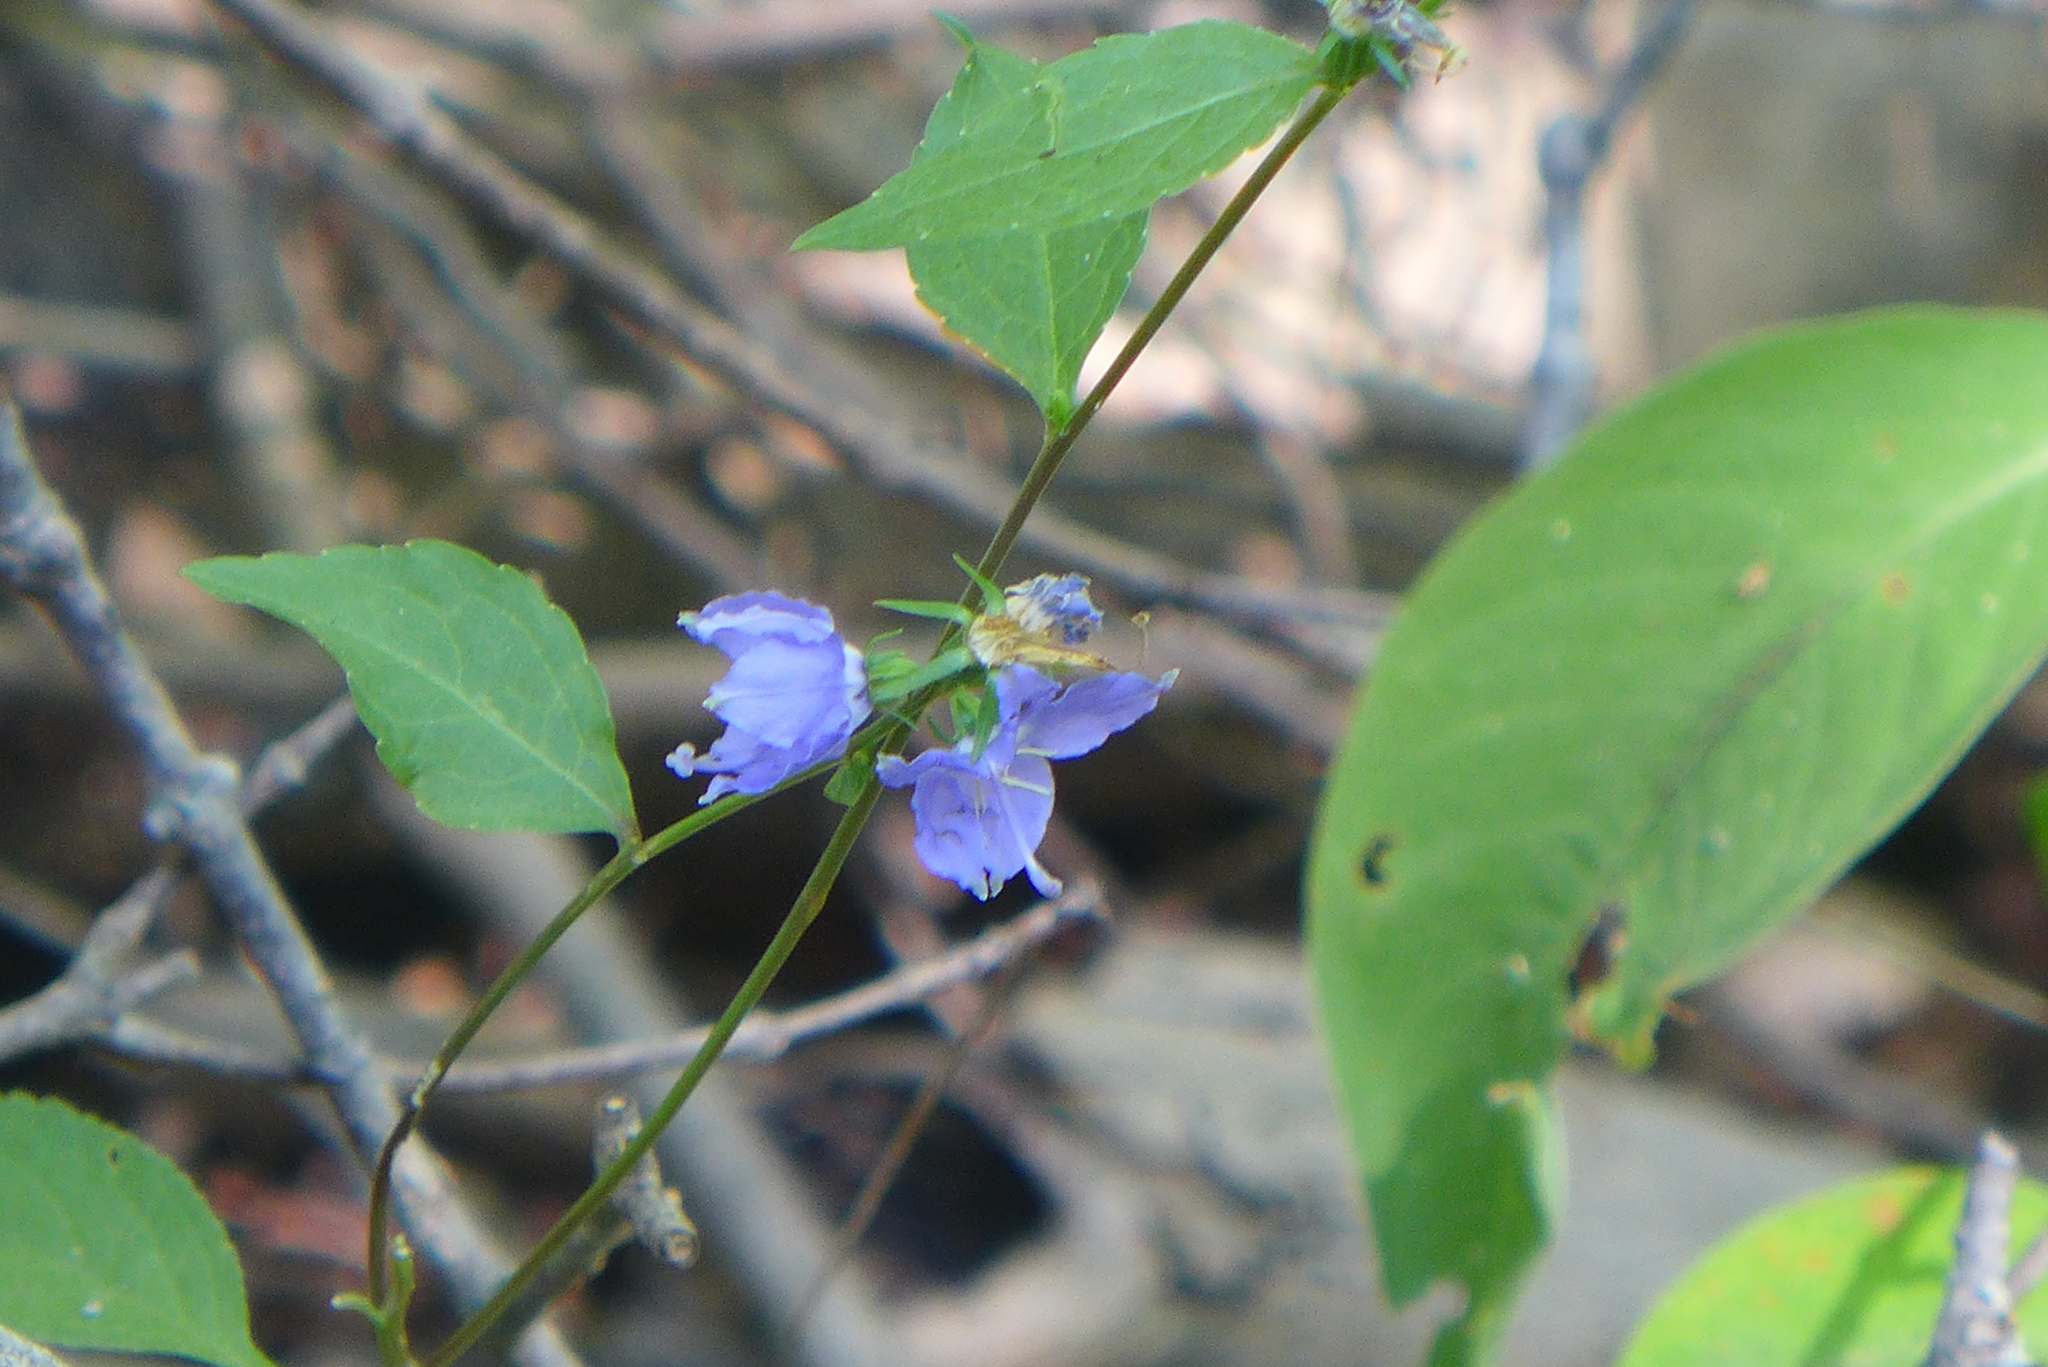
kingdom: Plantae
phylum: Tracheophyta
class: Magnoliopsida
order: Asterales
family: Campanulaceae
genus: Campanulastrum
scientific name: Campanulastrum americanum
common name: American bellflower
